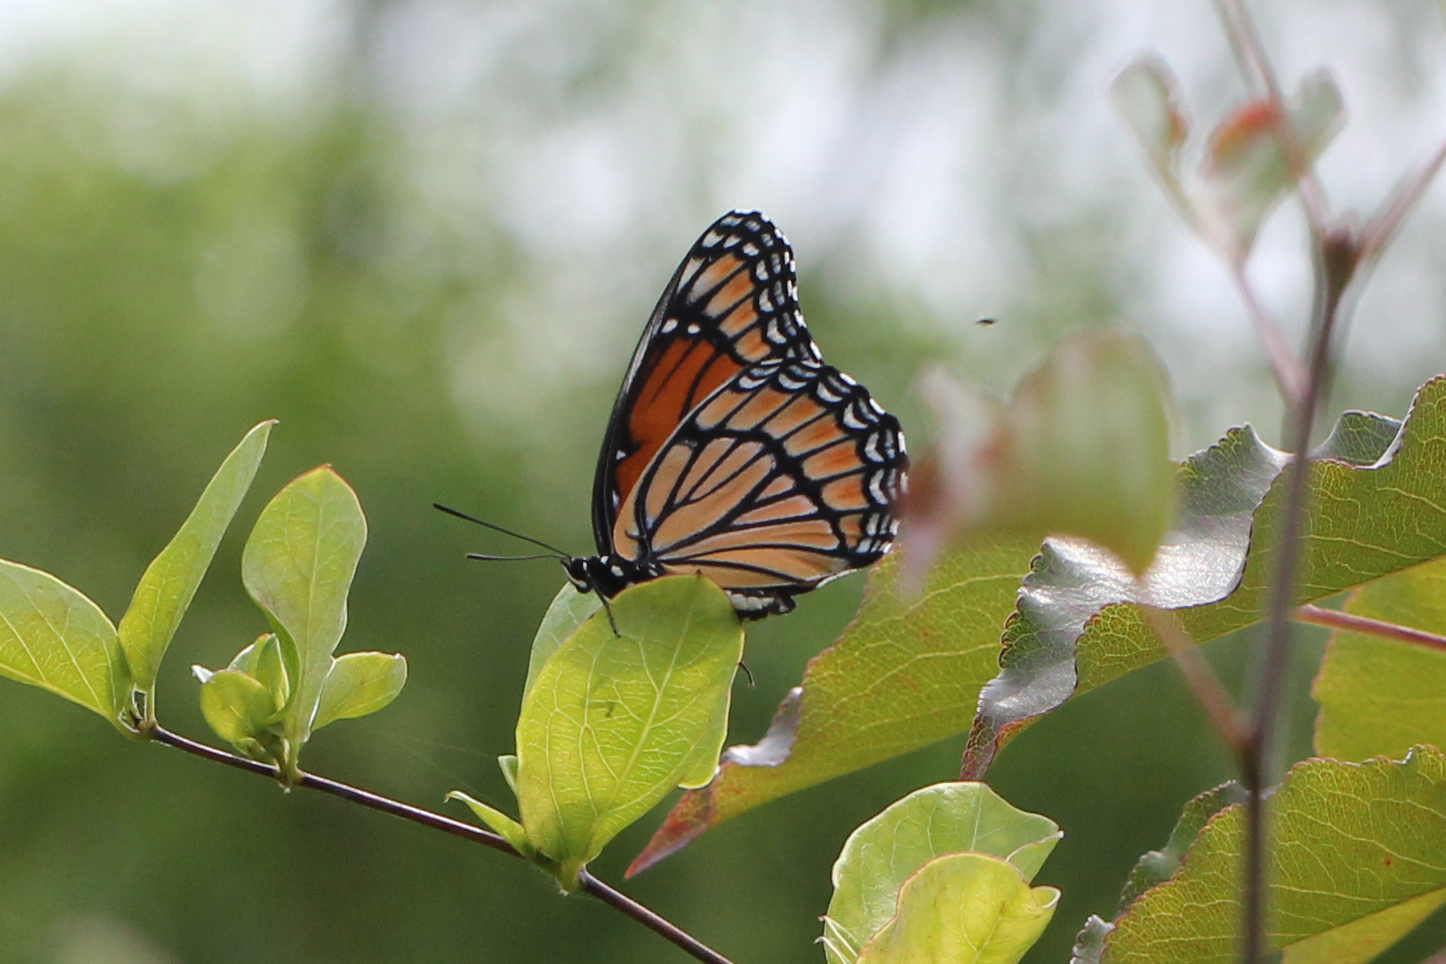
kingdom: Animalia
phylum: Arthropoda
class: Insecta
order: Lepidoptera
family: Nymphalidae
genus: Limenitis
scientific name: Limenitis archippus
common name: Viceroy
